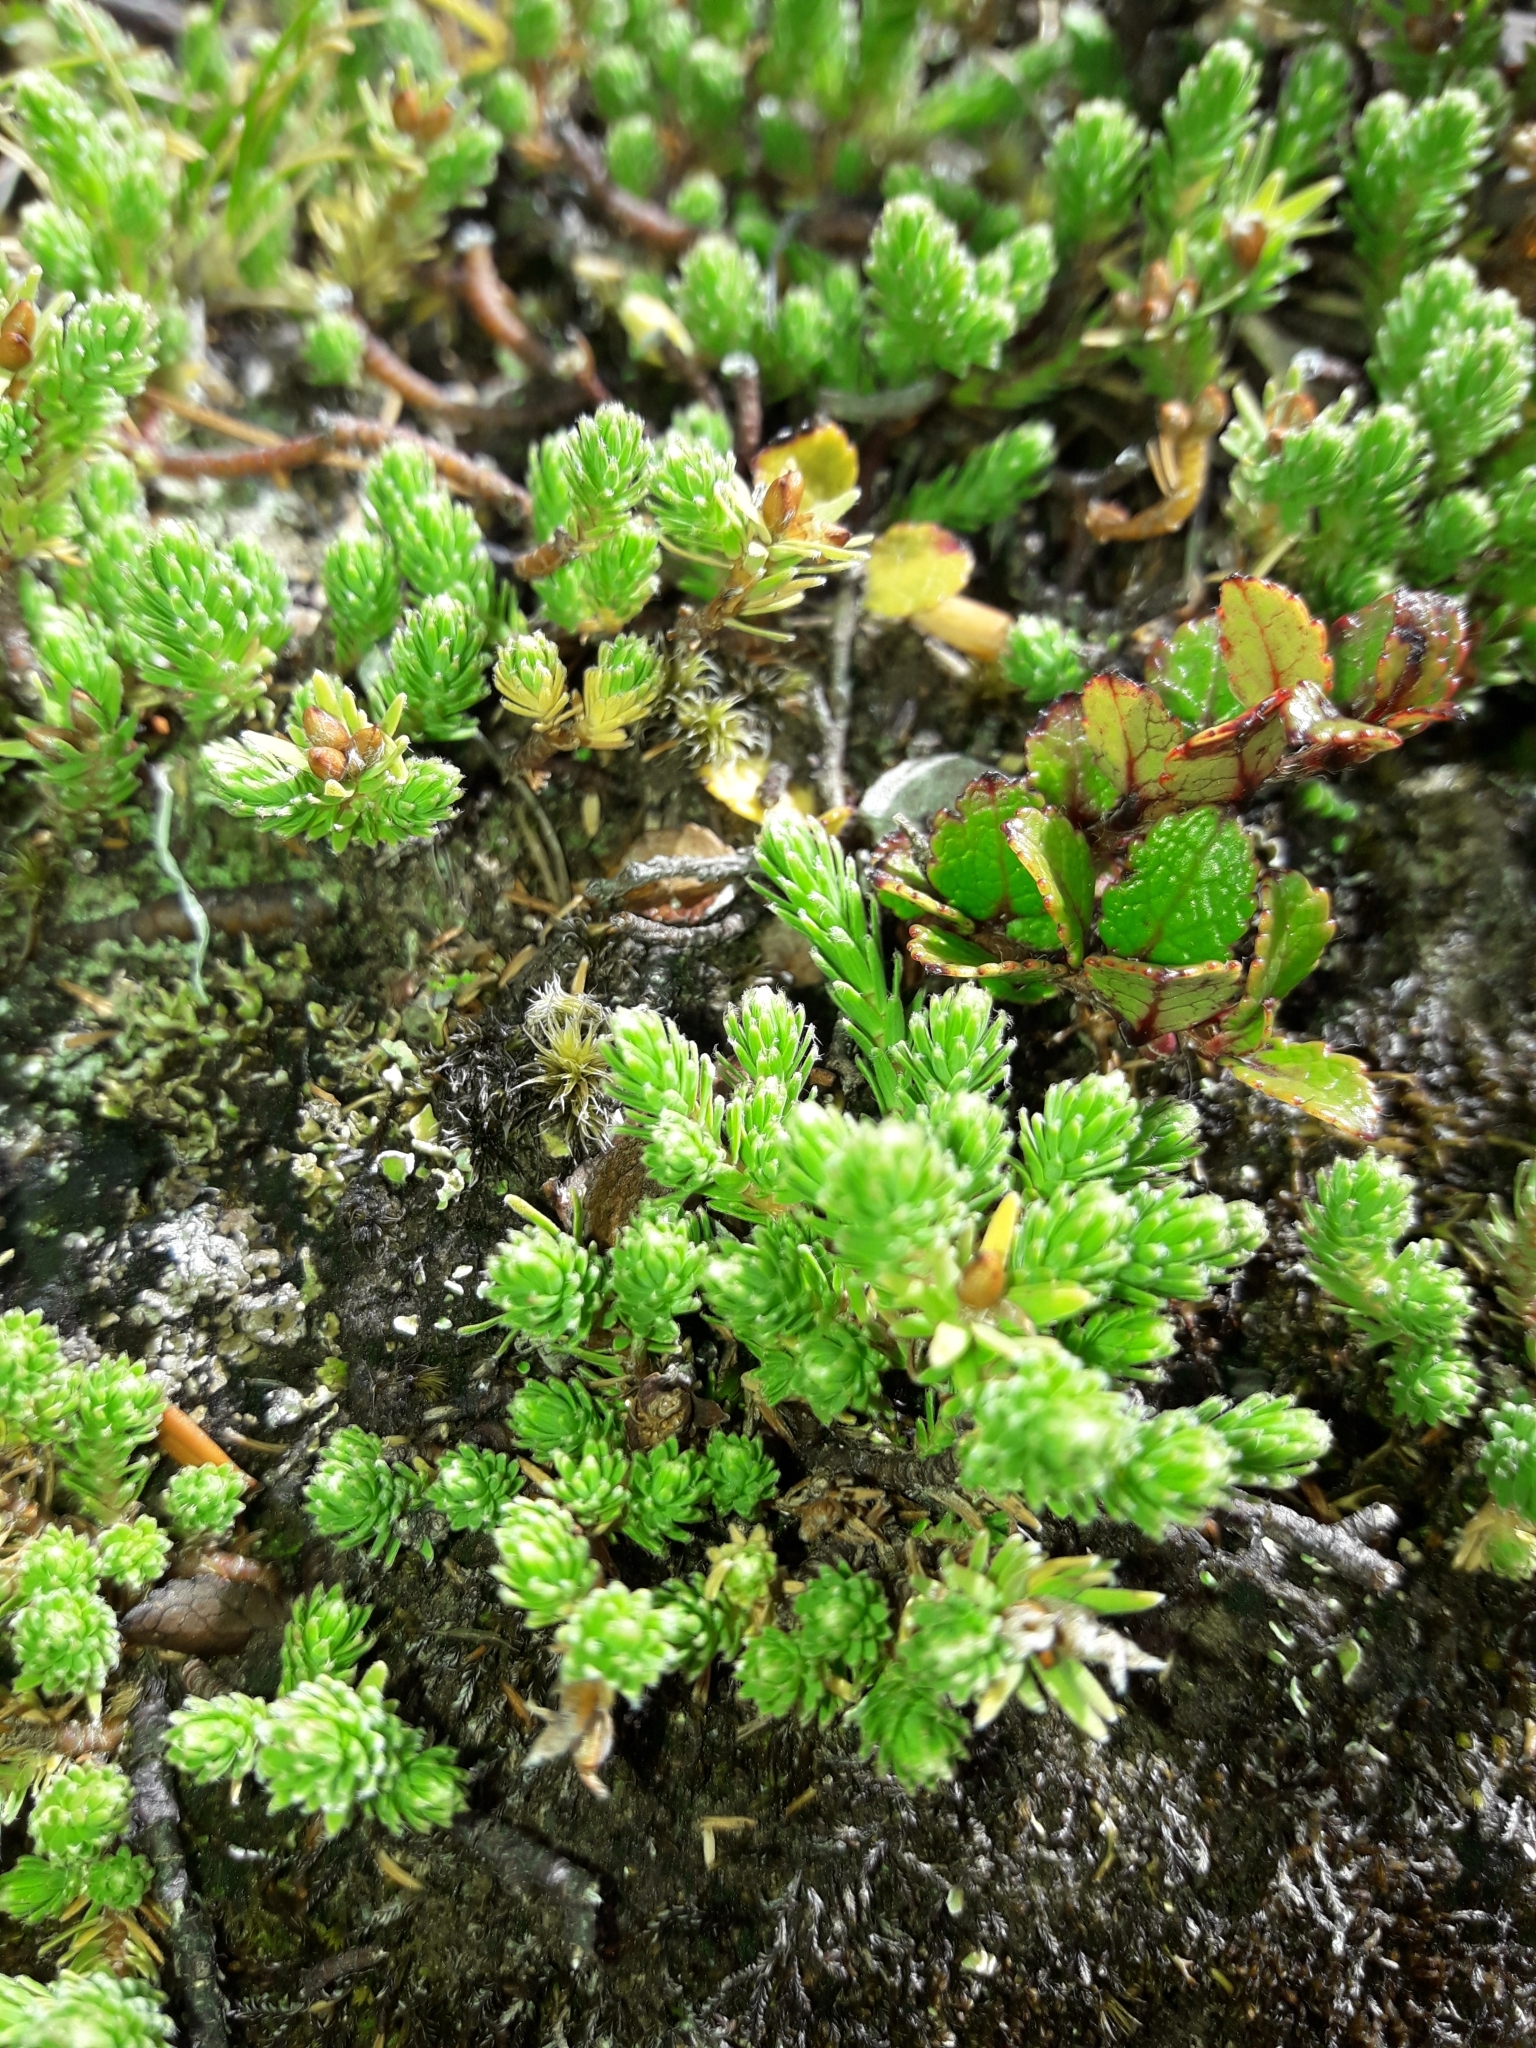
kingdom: Plantae
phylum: Tracheophyta
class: Magnoliopsida
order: Malvales
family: Thymelaeaceae
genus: Kelleria
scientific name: Kelleria dieffenbachii
